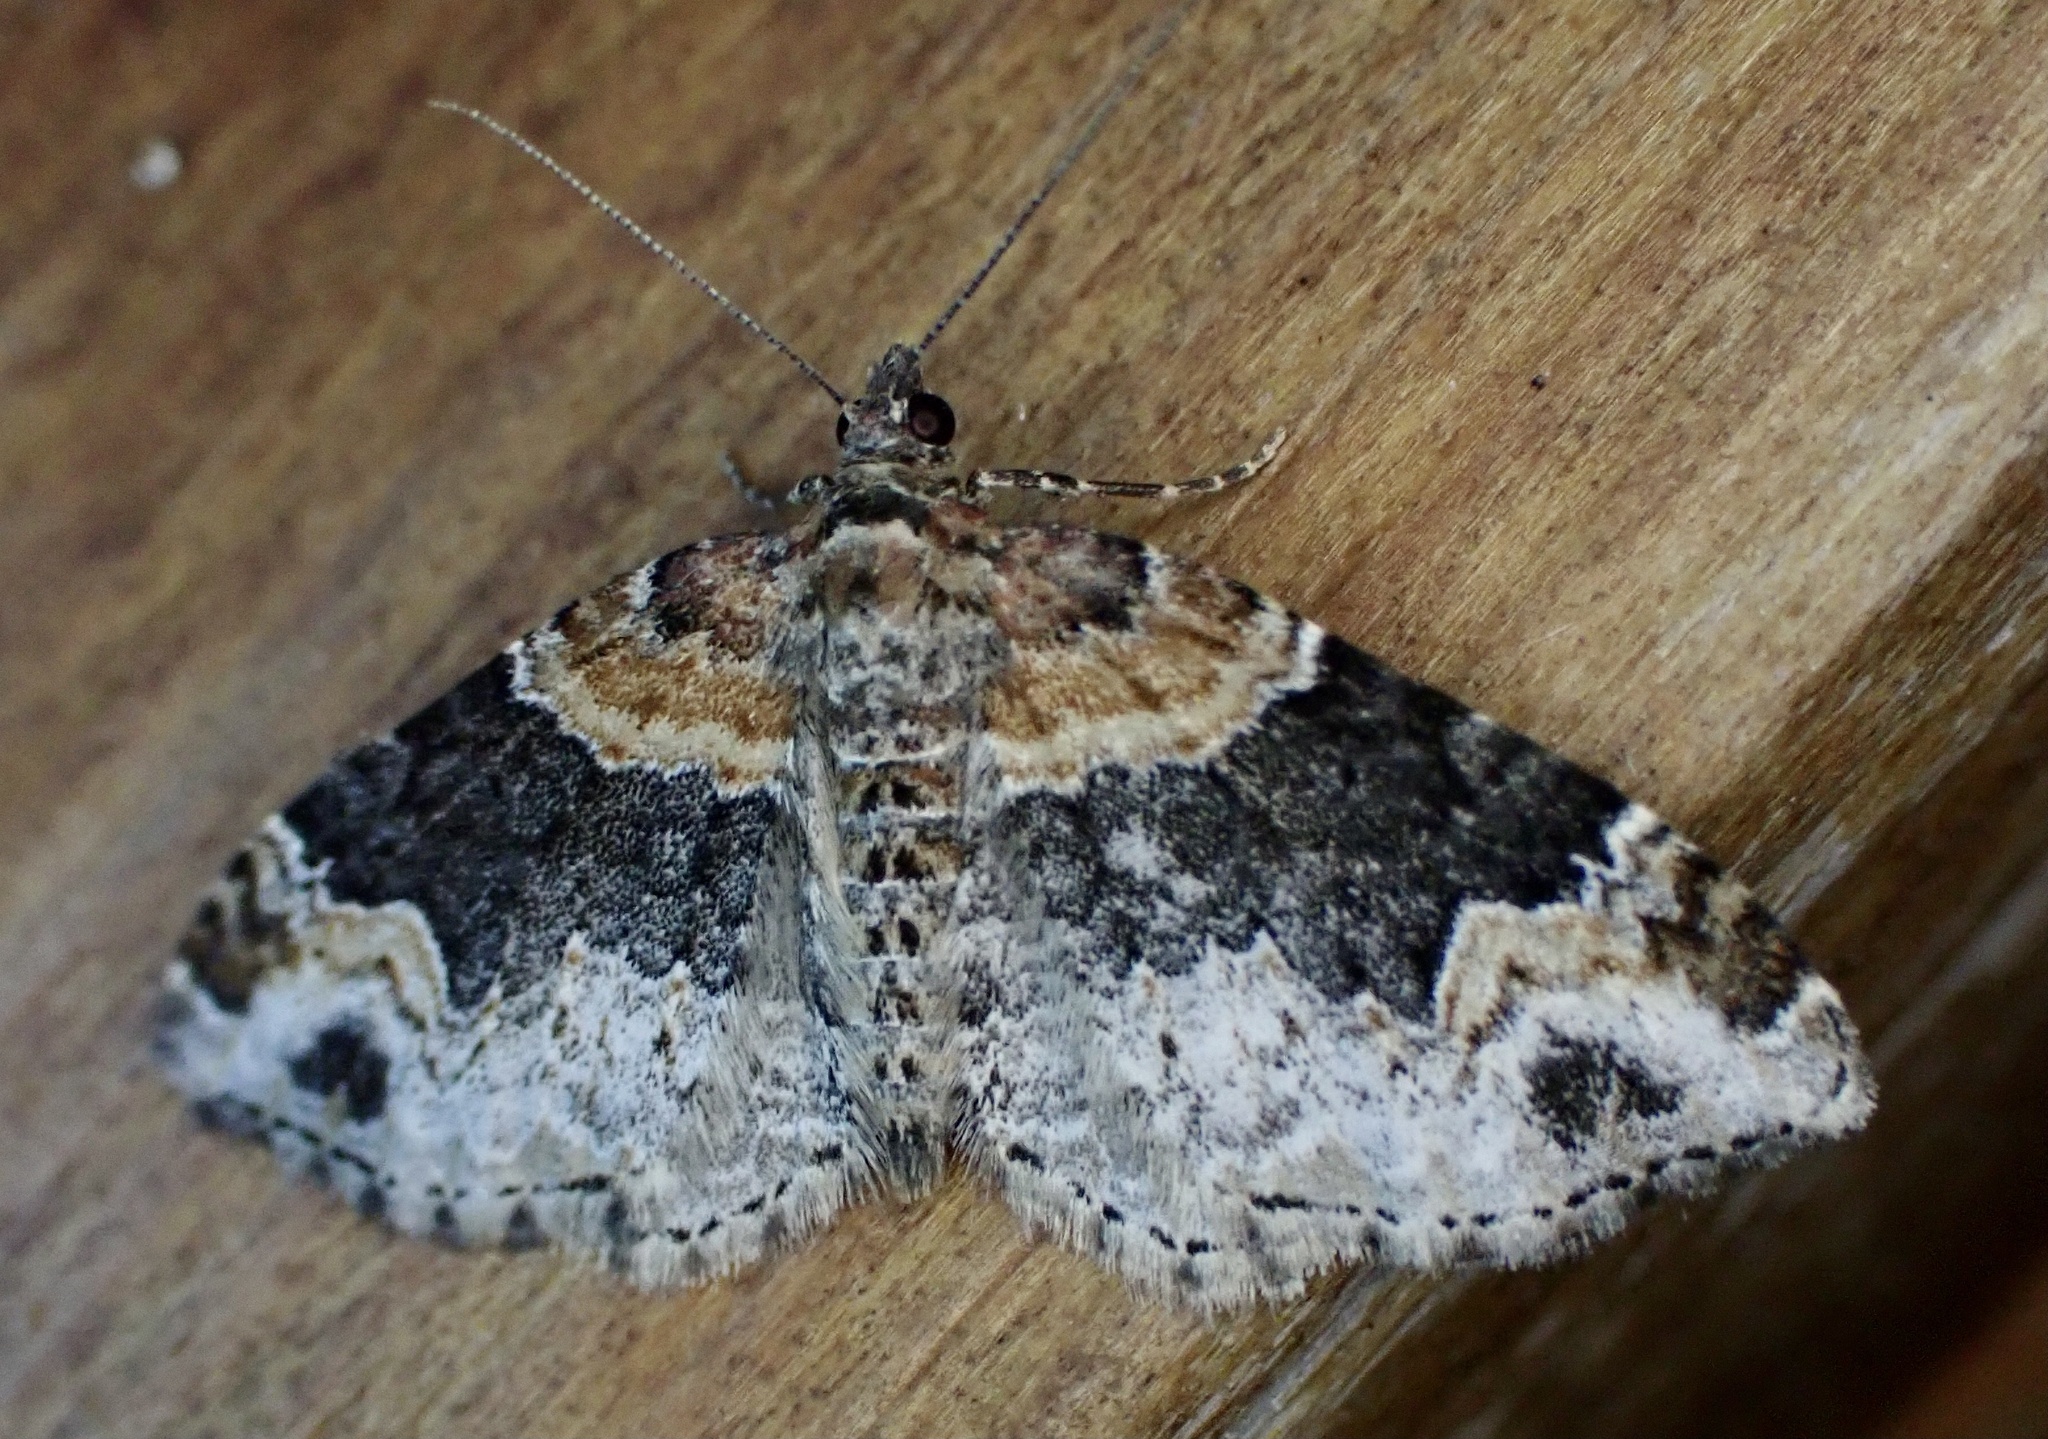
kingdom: Animalia
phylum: Arthropoda
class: Insecta
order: Lepidoptera
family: Geometridae
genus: Xanthorhoe
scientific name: Xanthorhoe ferrugata
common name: Dark-barred twin-spot carpet
